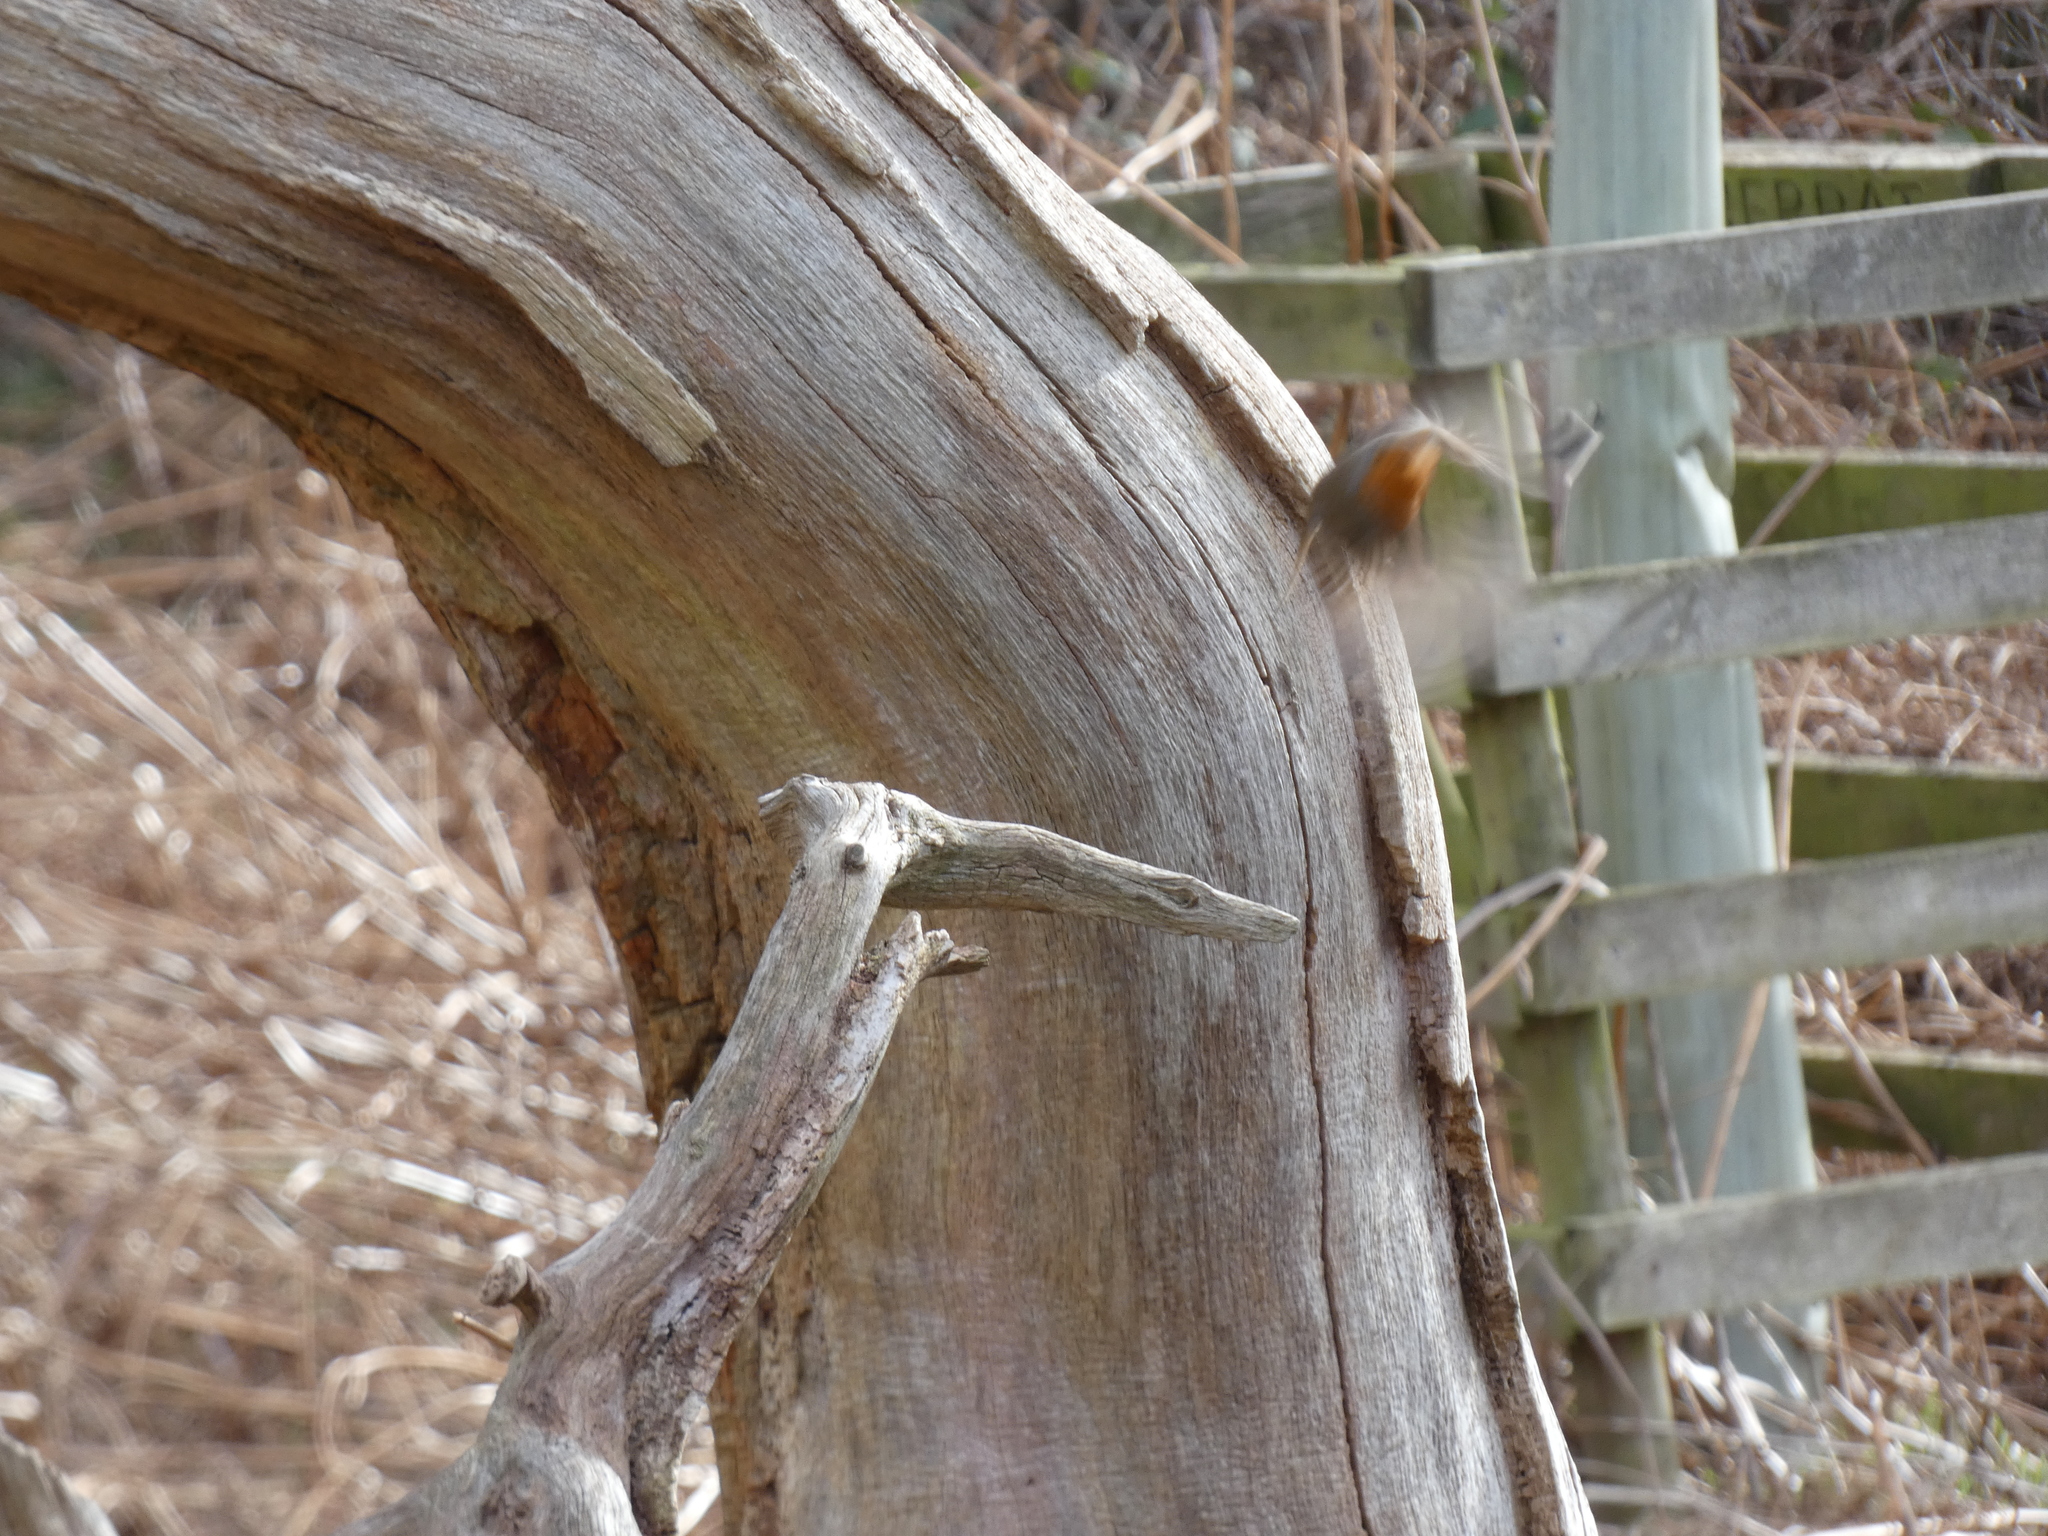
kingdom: Animalia
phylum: Chordata
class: Aves
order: Passeriformes
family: Muscicapidae
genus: Erithacus
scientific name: Erithacus rubecula
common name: European robin
